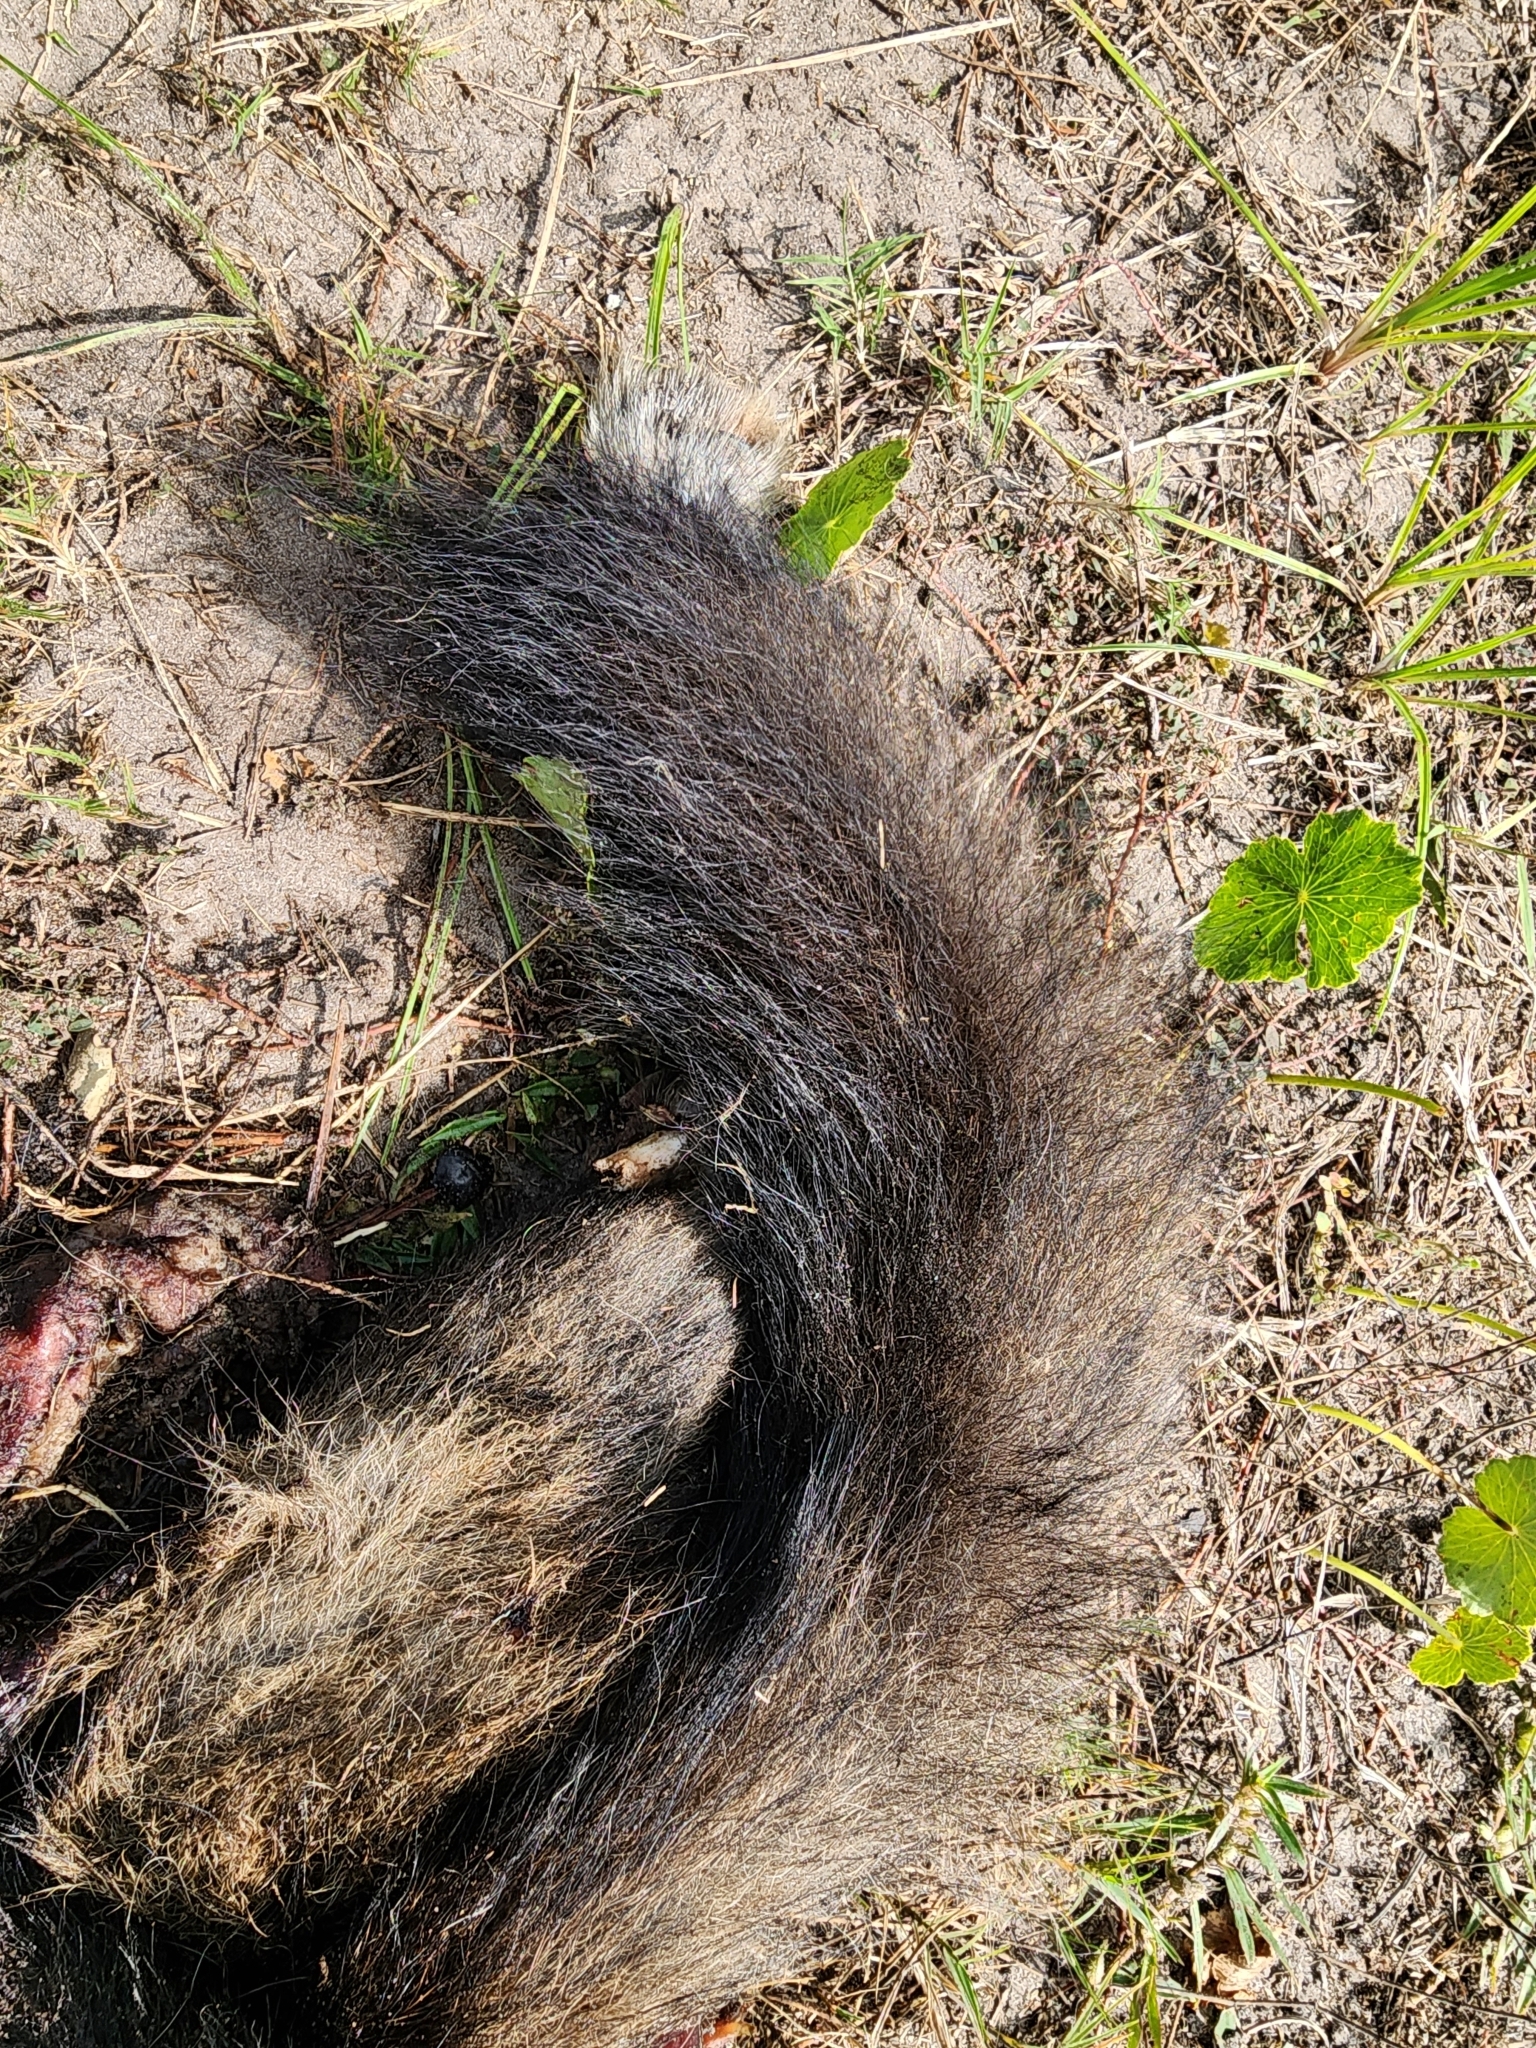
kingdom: Animalia
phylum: Chordata
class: Mammalia
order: Carnivora
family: Canidae
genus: Canis
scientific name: Canis latrans
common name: Coyote
